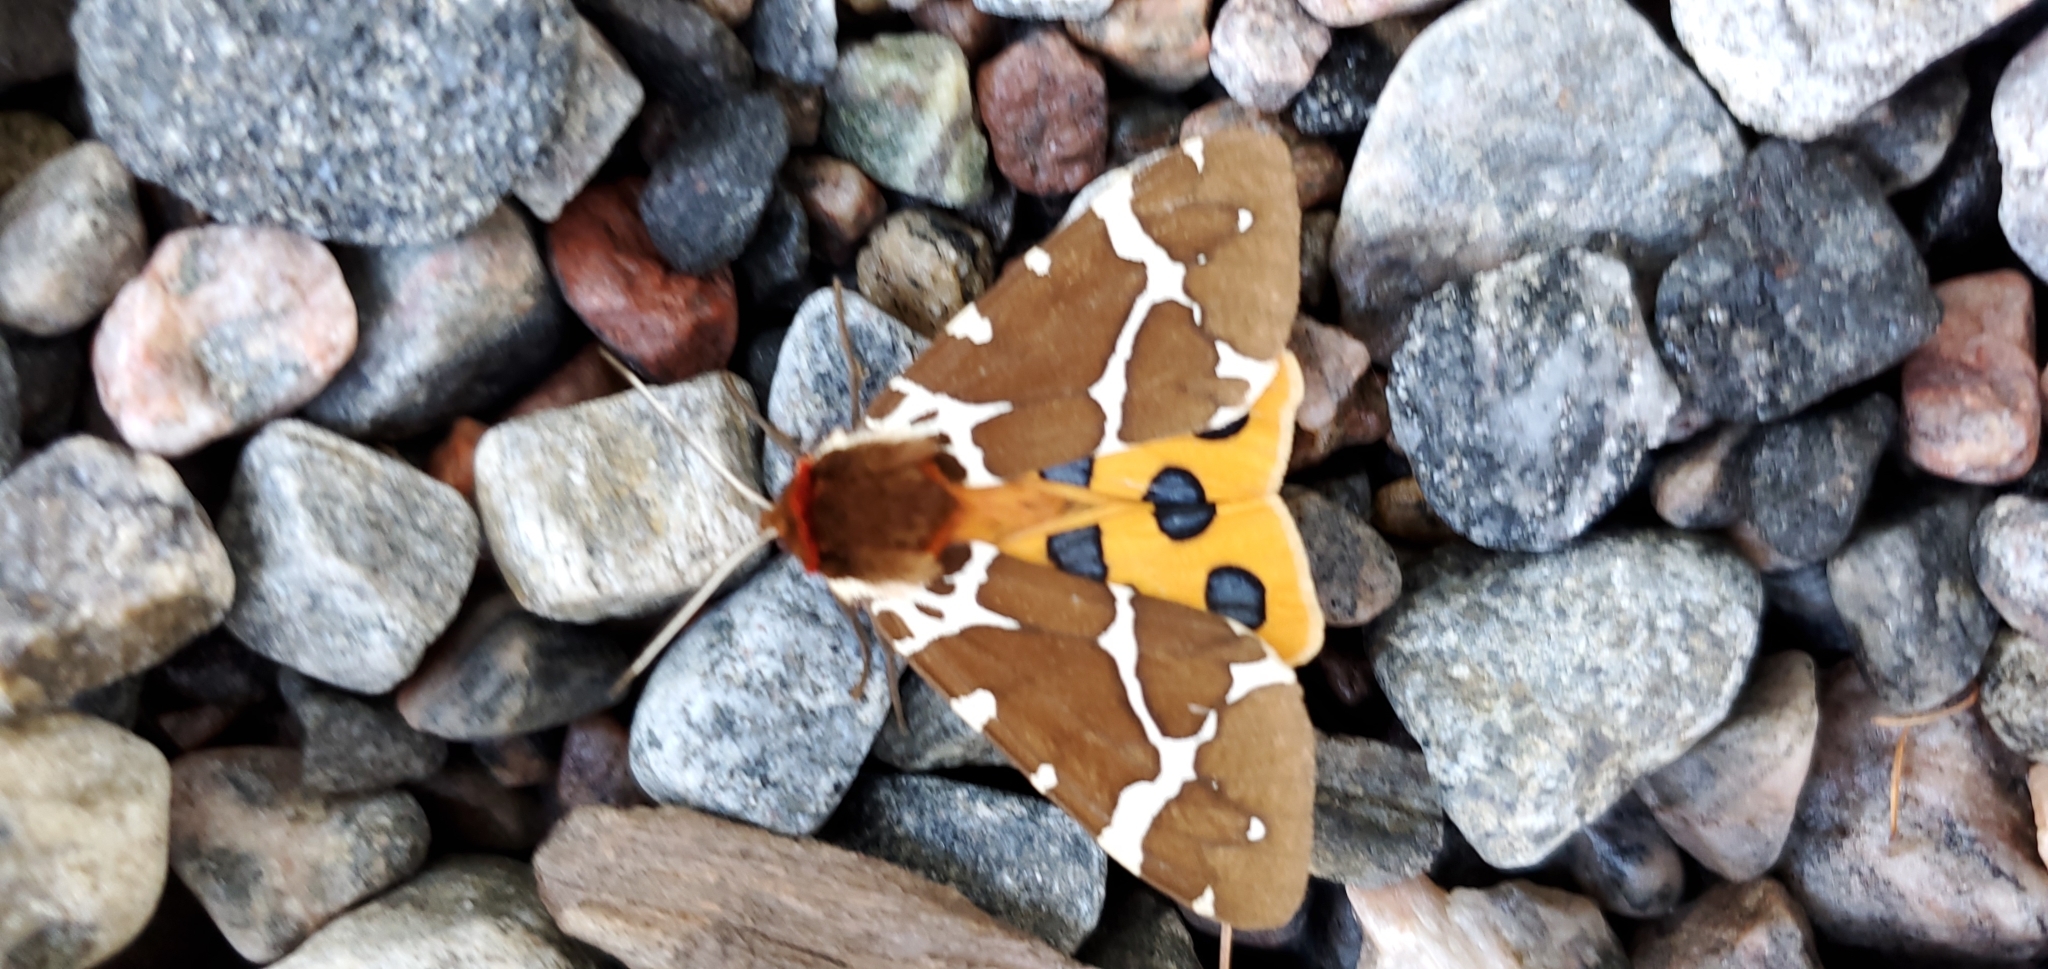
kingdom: Animalia
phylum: Arthropoda
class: Insecta
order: Lepidoptera
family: Erebidae
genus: Arctia
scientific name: Arctia caja
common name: Garden tiger
